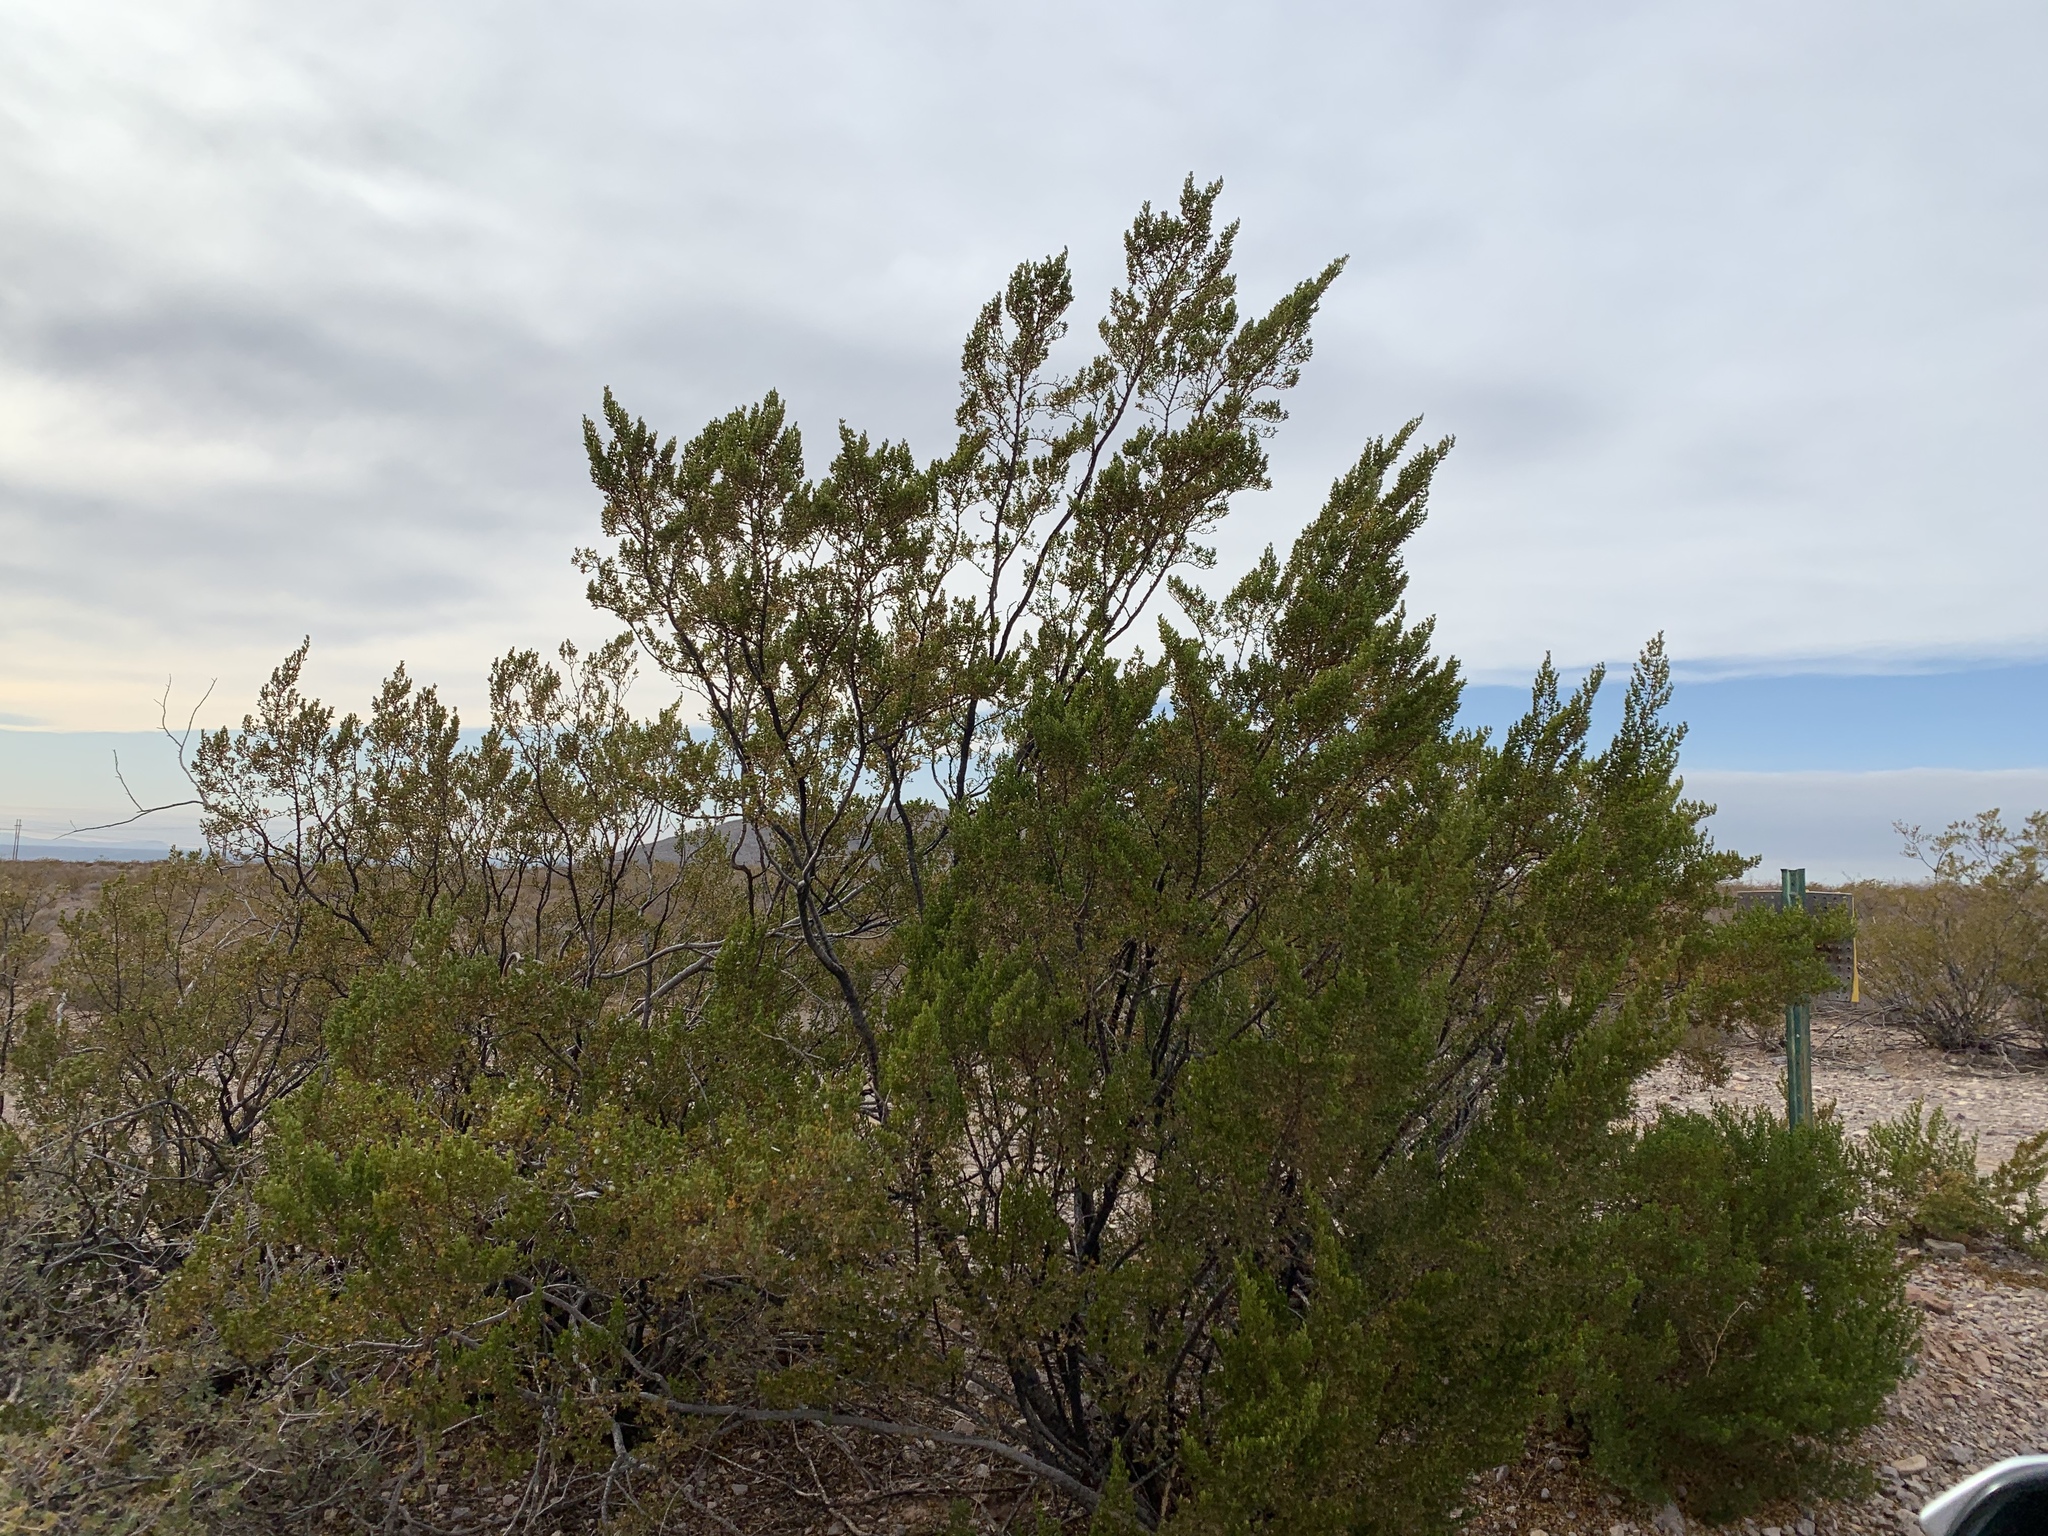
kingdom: Plantae
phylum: Tracheophyta
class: Magnoliopsida
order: Zygophyllales
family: Zygophyllaceae
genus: Larrea
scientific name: Larrea tridentata
